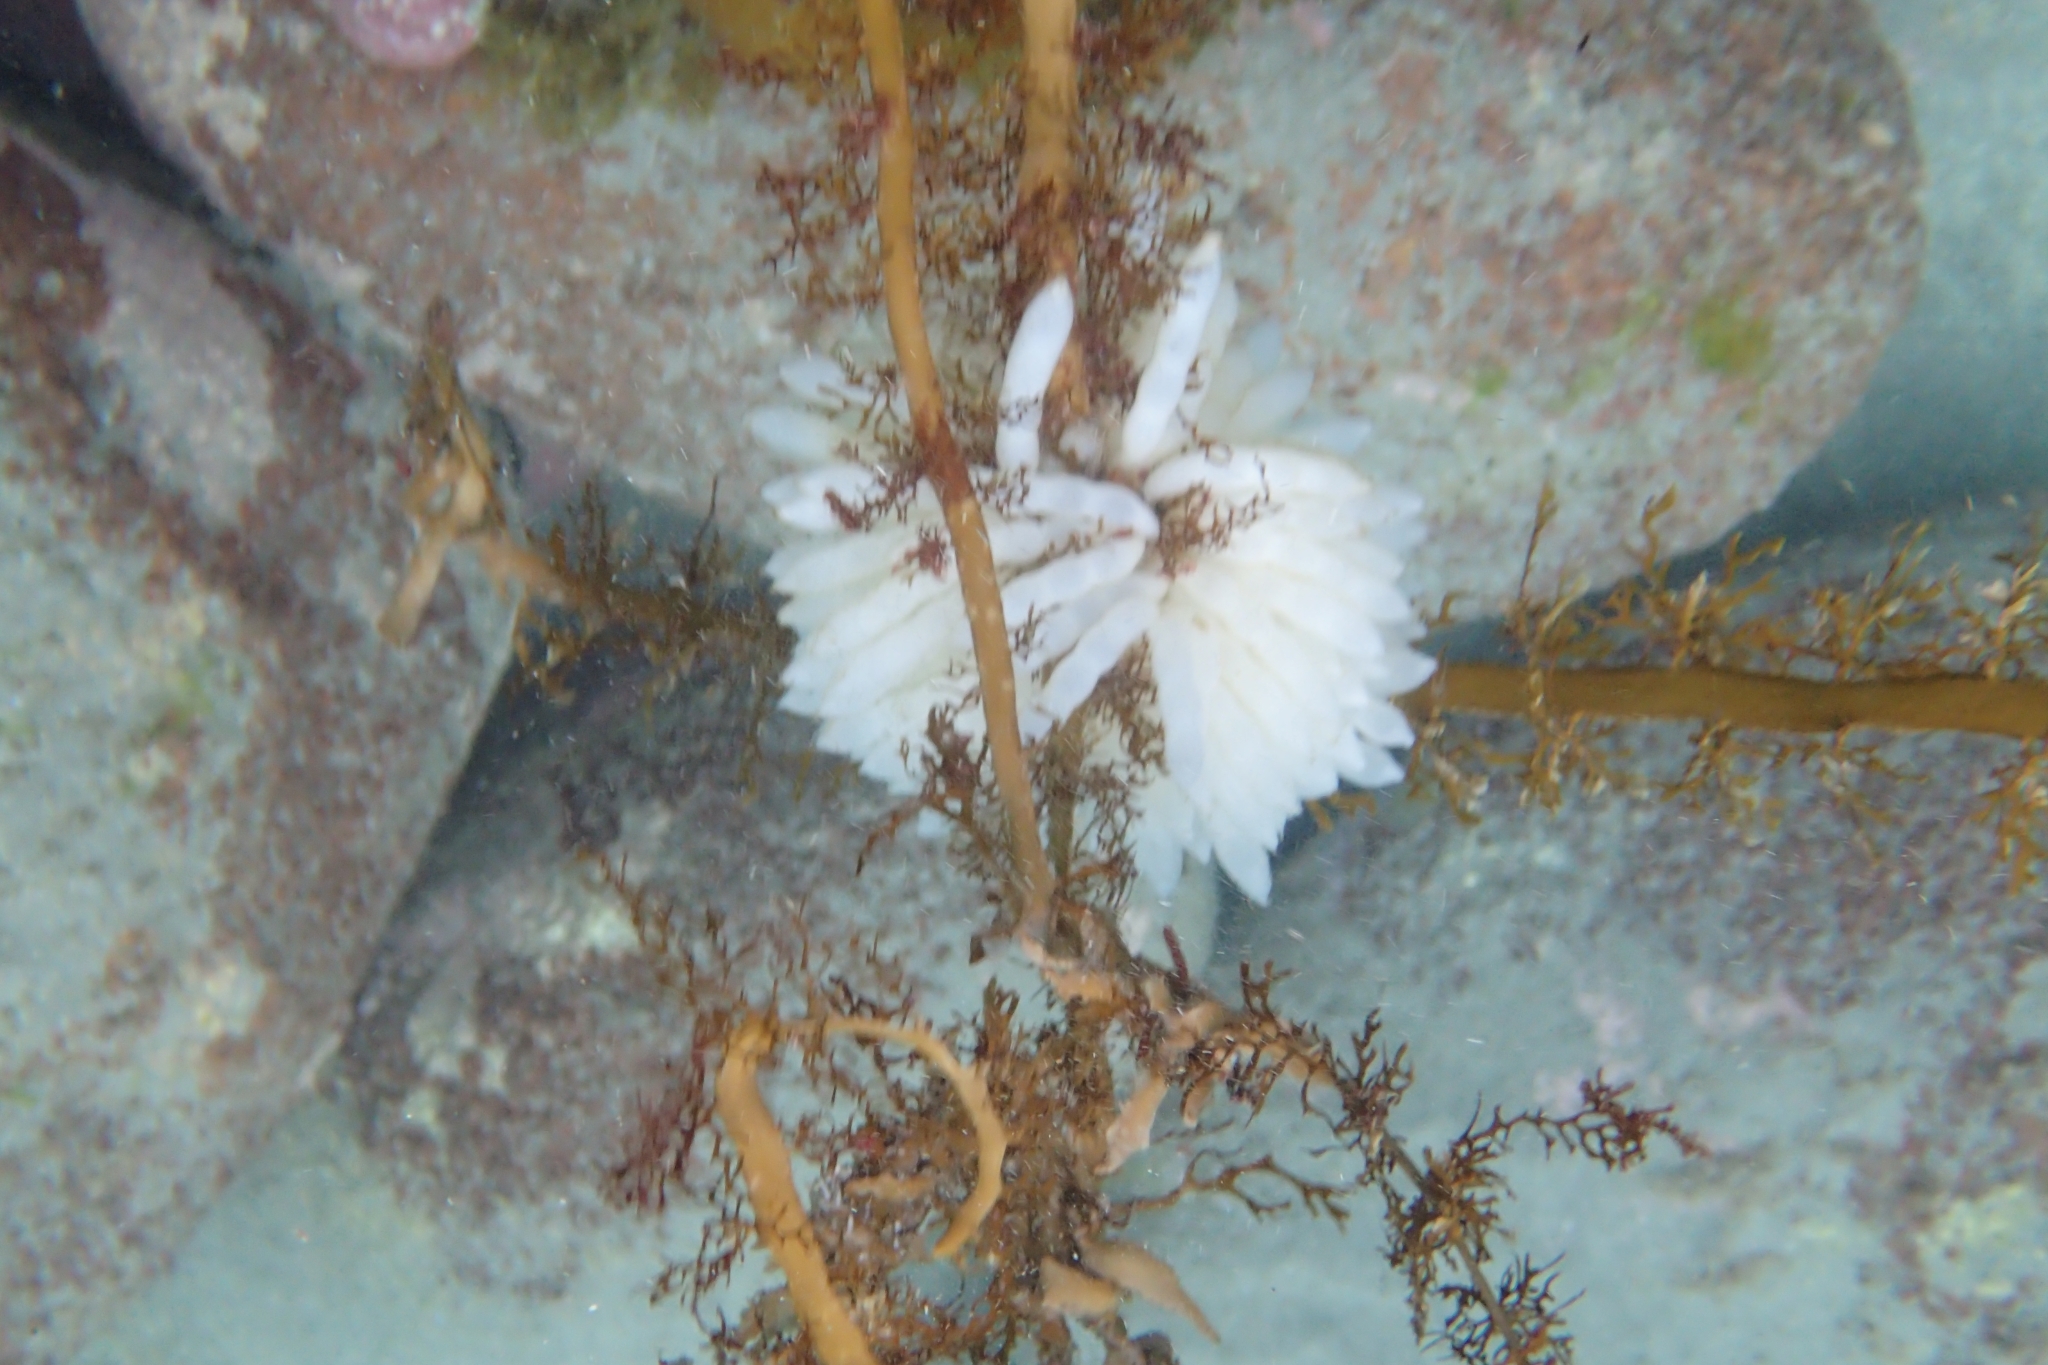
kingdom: Animalia
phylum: Mollusca
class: Cephalopoda
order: Myopsida
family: Loliginidae
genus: Sepioteuthis
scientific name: Sepioteuthis australis
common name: Southern reef squid
